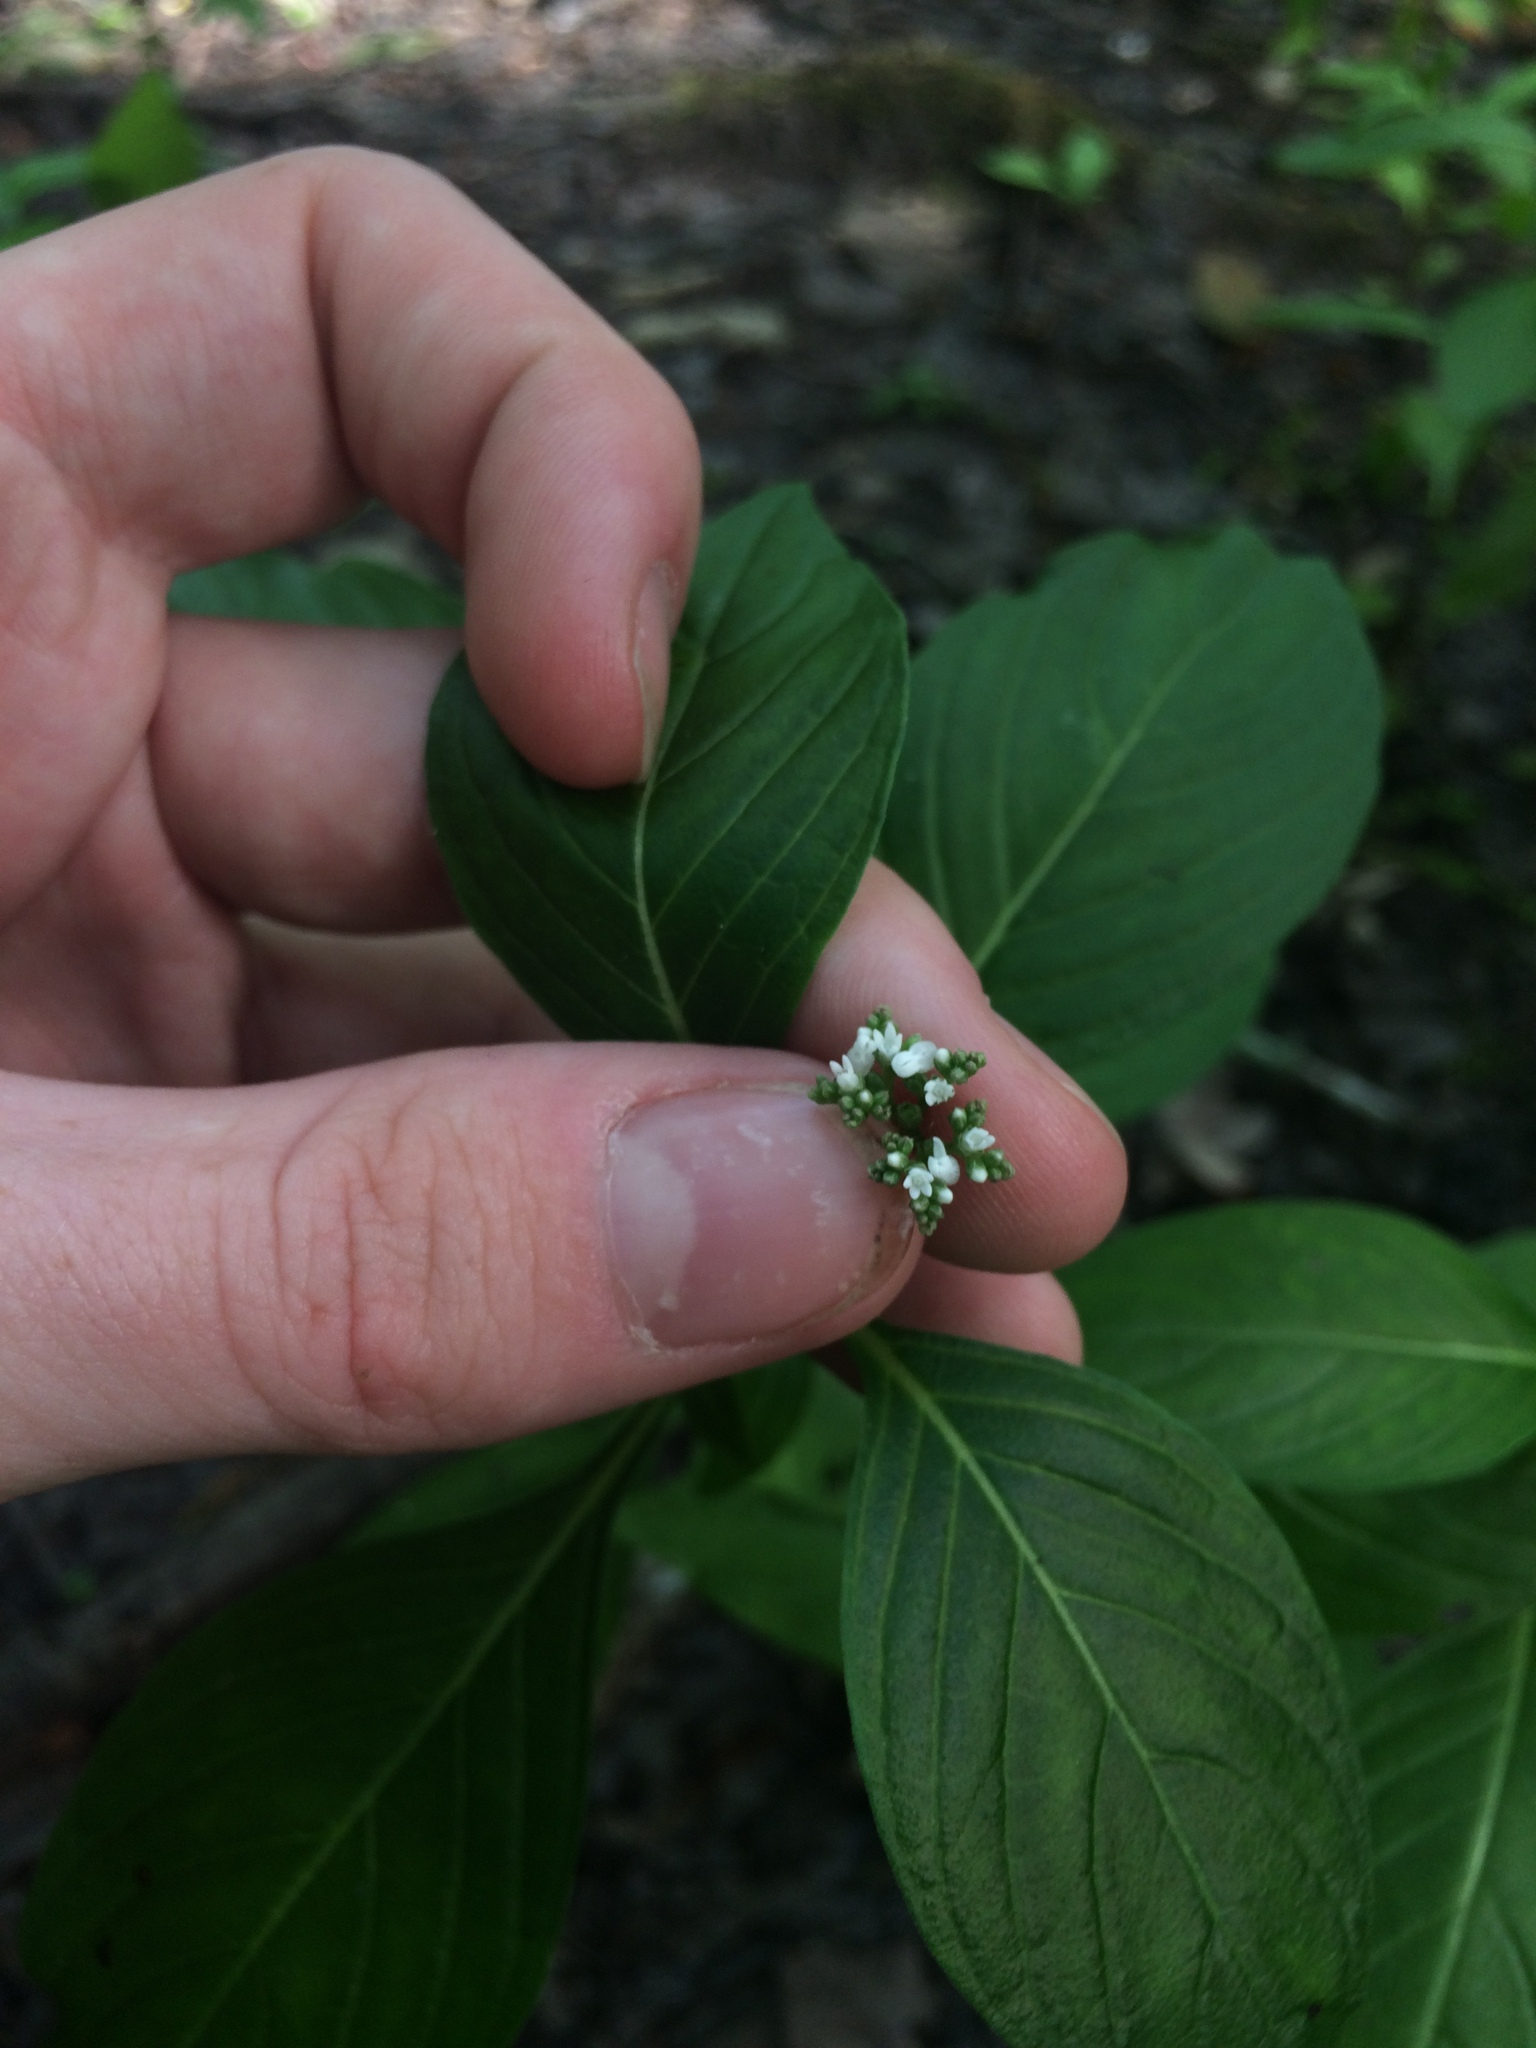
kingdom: Plantae
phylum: Tracheophyta
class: Magnoliopsida
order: Gentianales
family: Loganiaceae
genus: Mitreola
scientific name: Mitreola petiolata
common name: Lax hornpod
